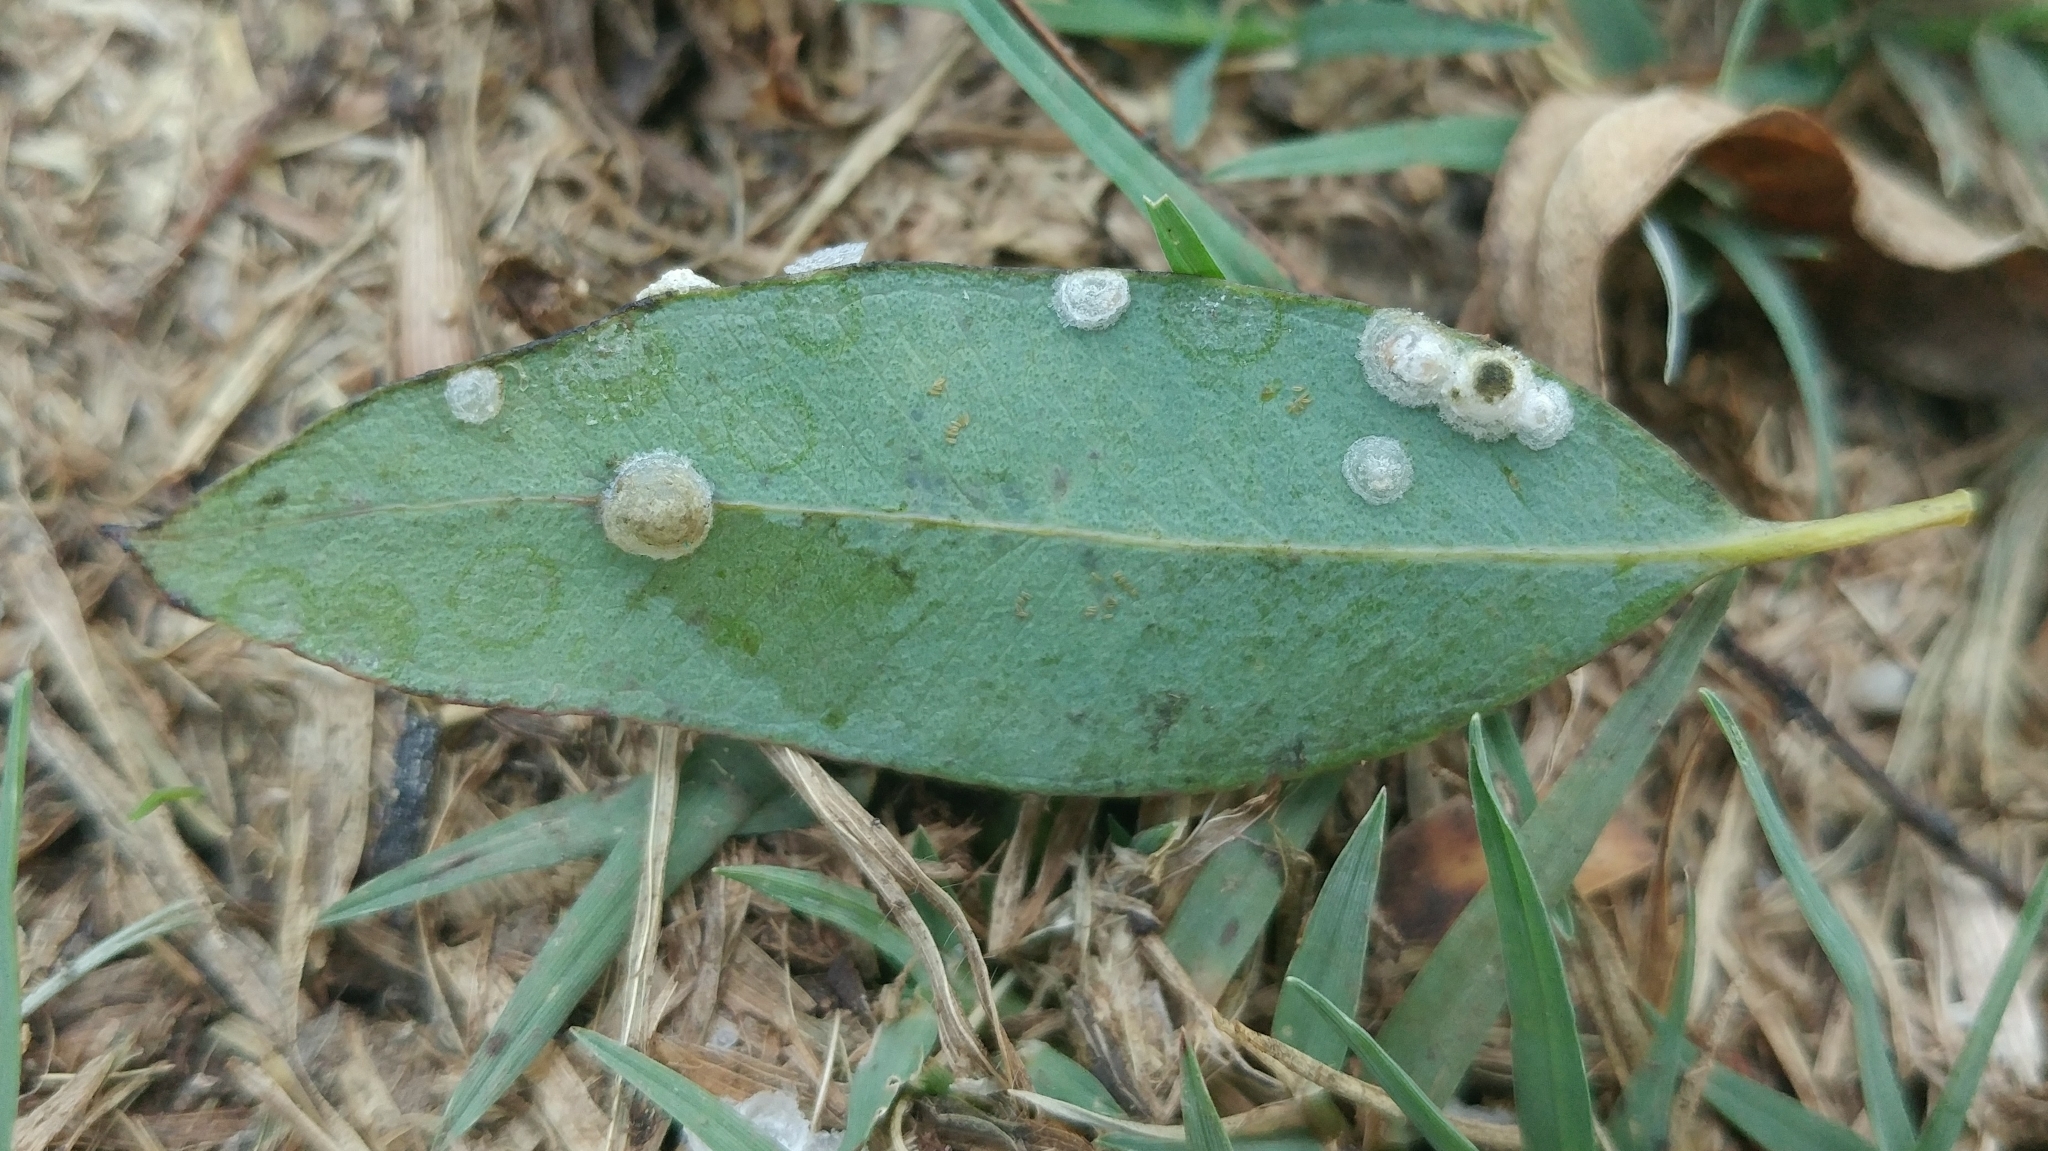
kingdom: Animalia
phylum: Arthropoda
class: Insecta
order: Hemiptera
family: Aphalaridae
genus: Glycaspis
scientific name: Glycaspis brimblecombei
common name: Red gum lerp psyllid
